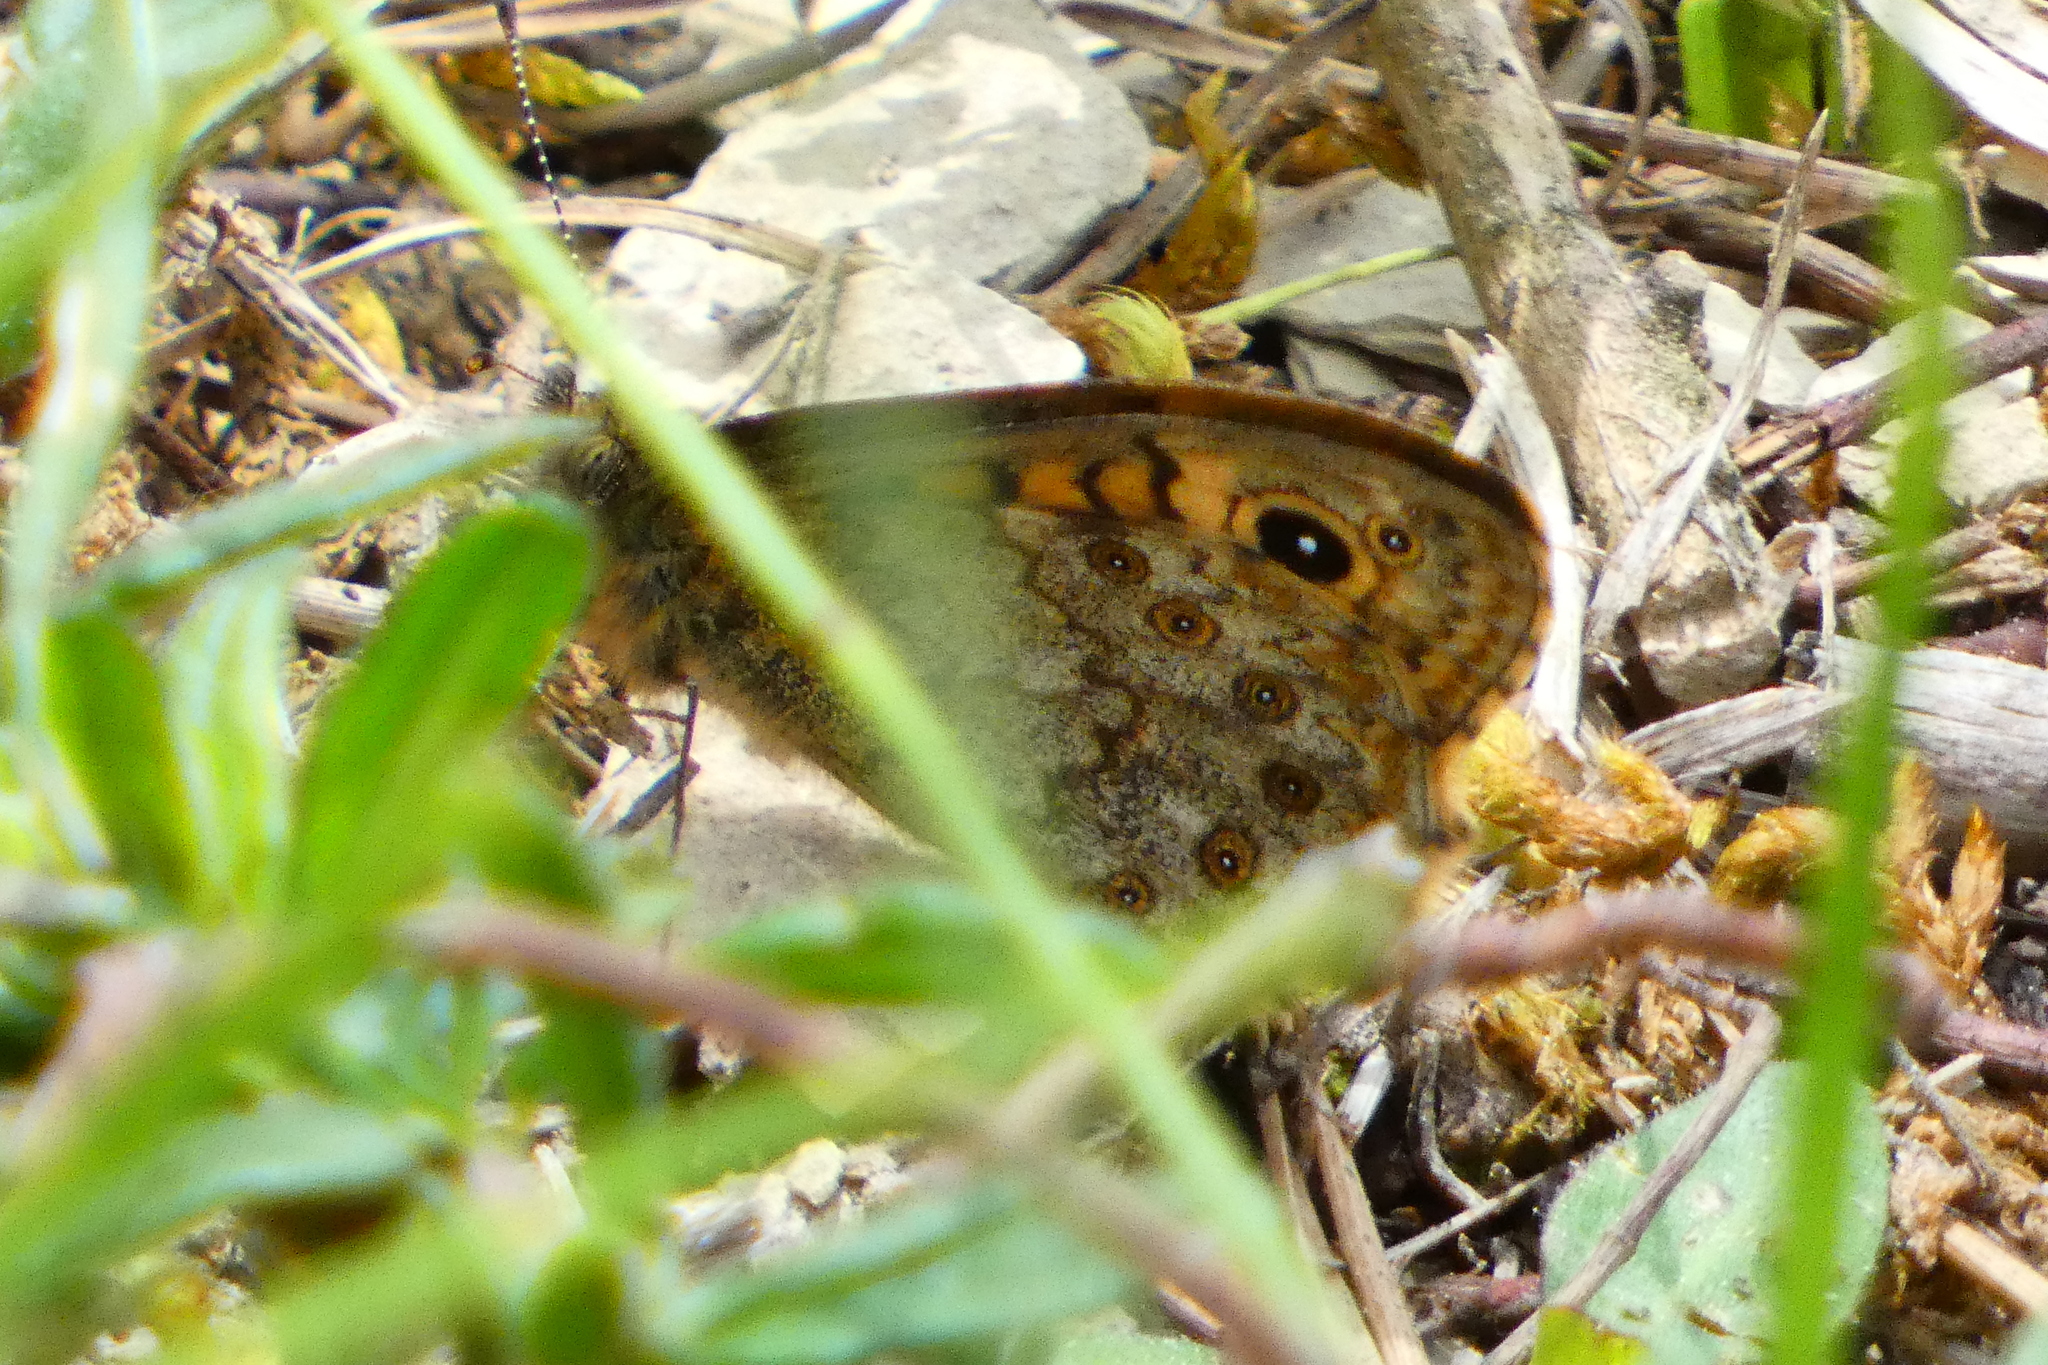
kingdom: Animalia
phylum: Arthropoda
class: Insecta
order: Lepidoptera
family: Nymphalidae
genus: Pararge
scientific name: Pararge Lasiommata megera
